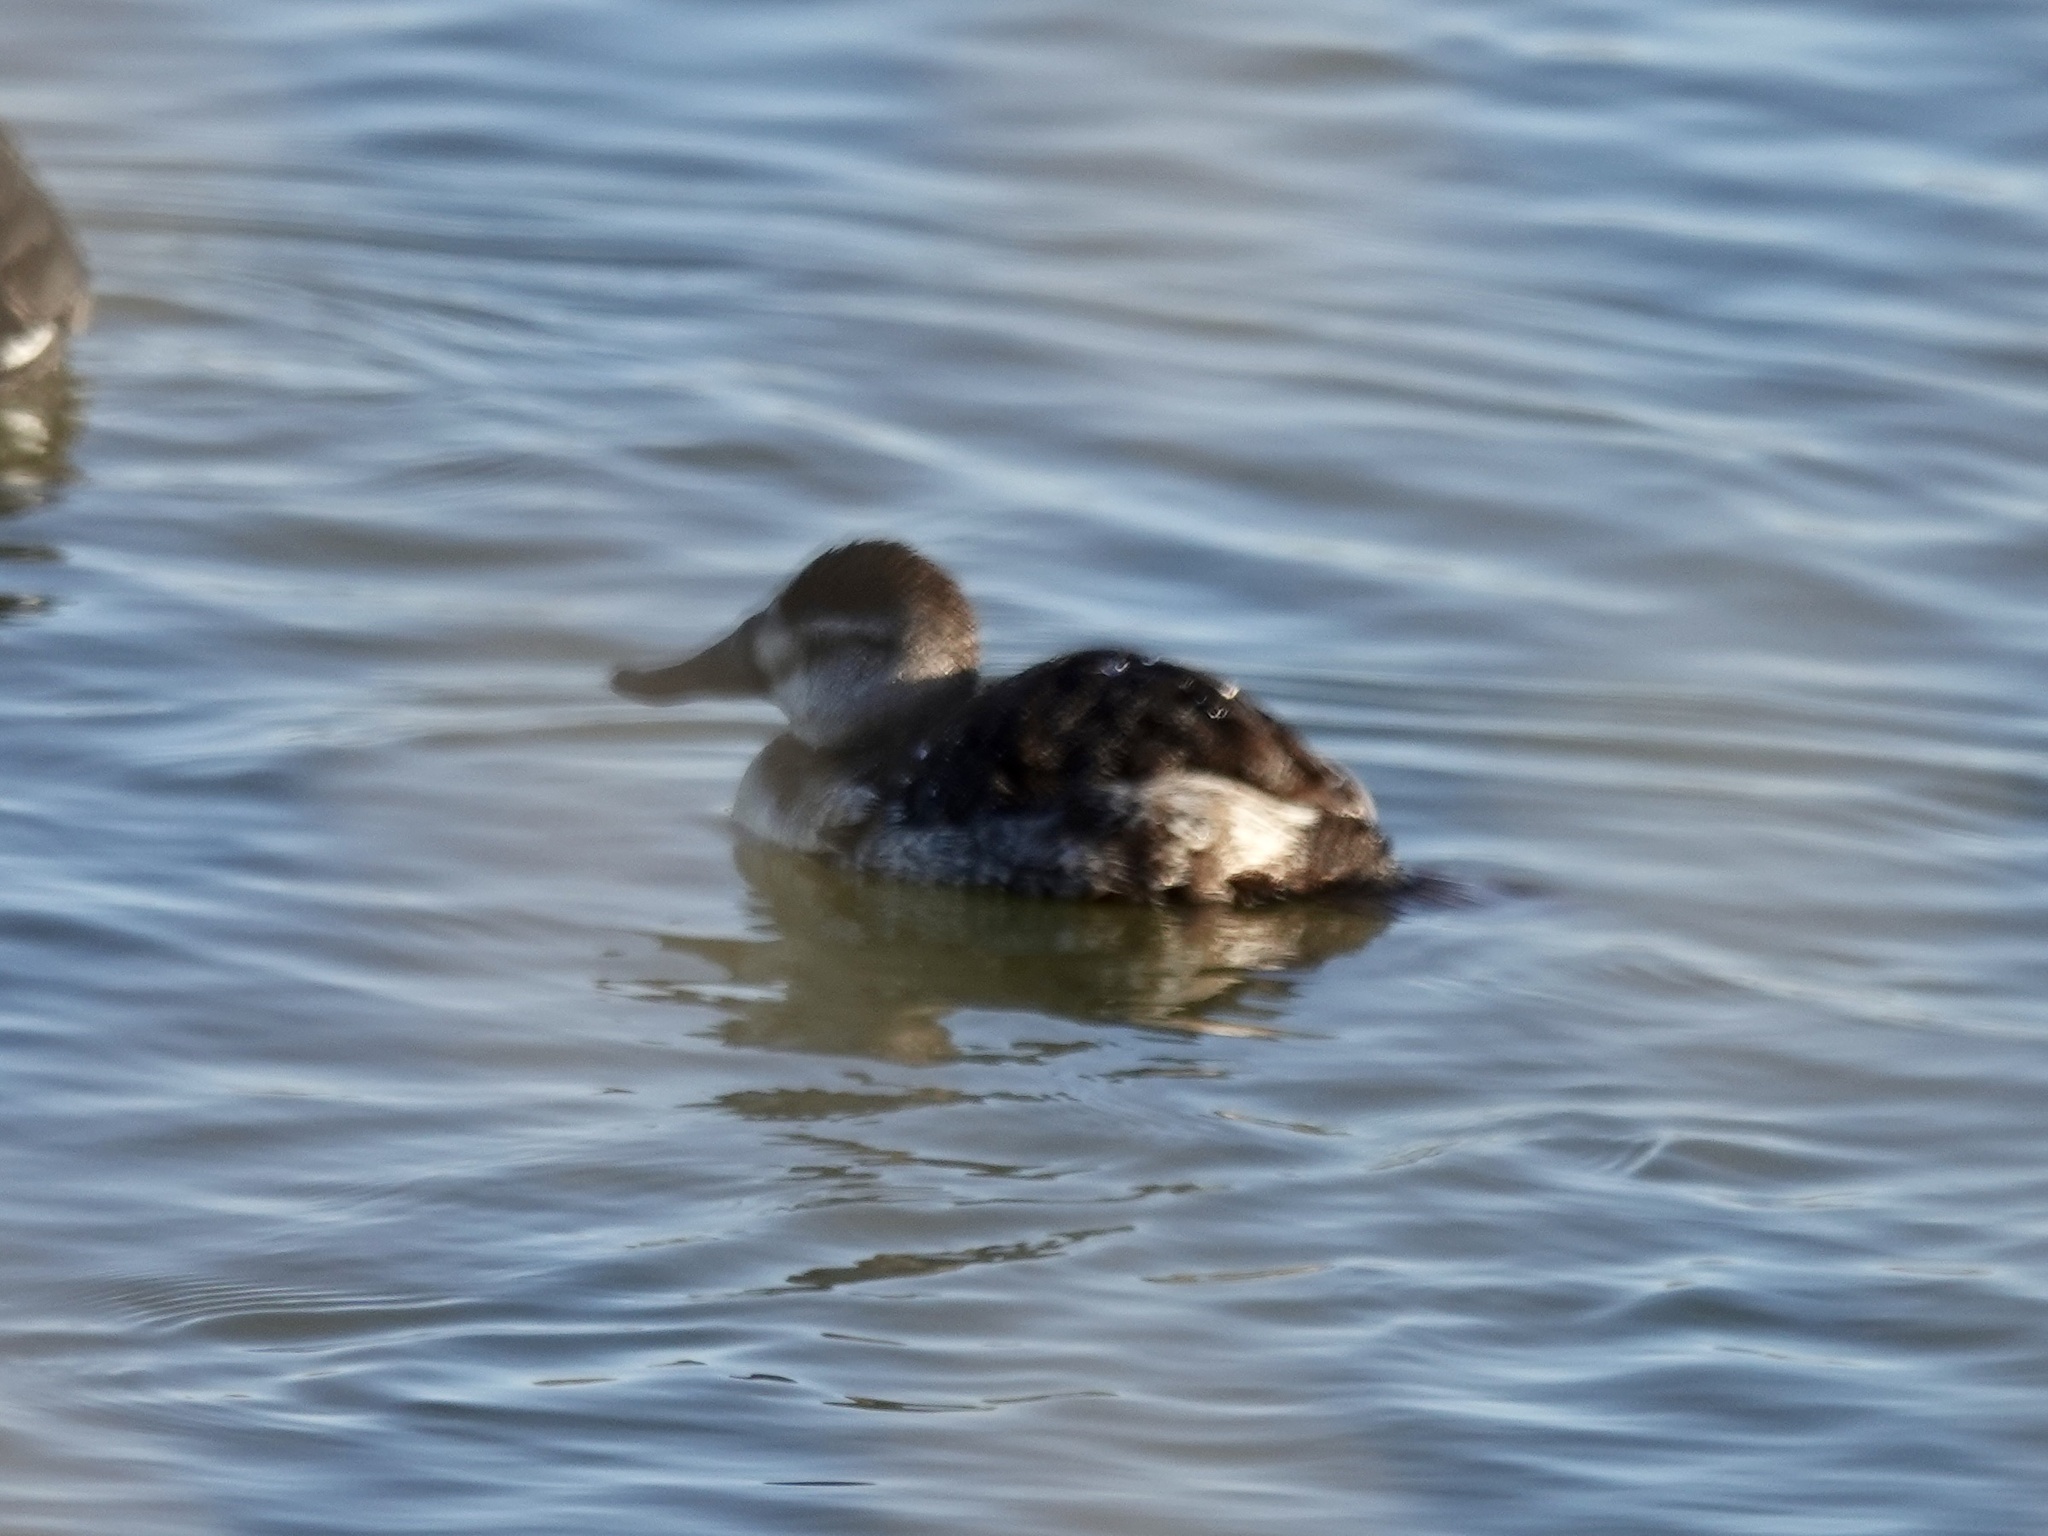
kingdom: Animalia
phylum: Chordata
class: Aves
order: Anseriformes
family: Anatidae
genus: Oxyura
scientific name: Oxyura jamaicensis
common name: Ruddy duck
